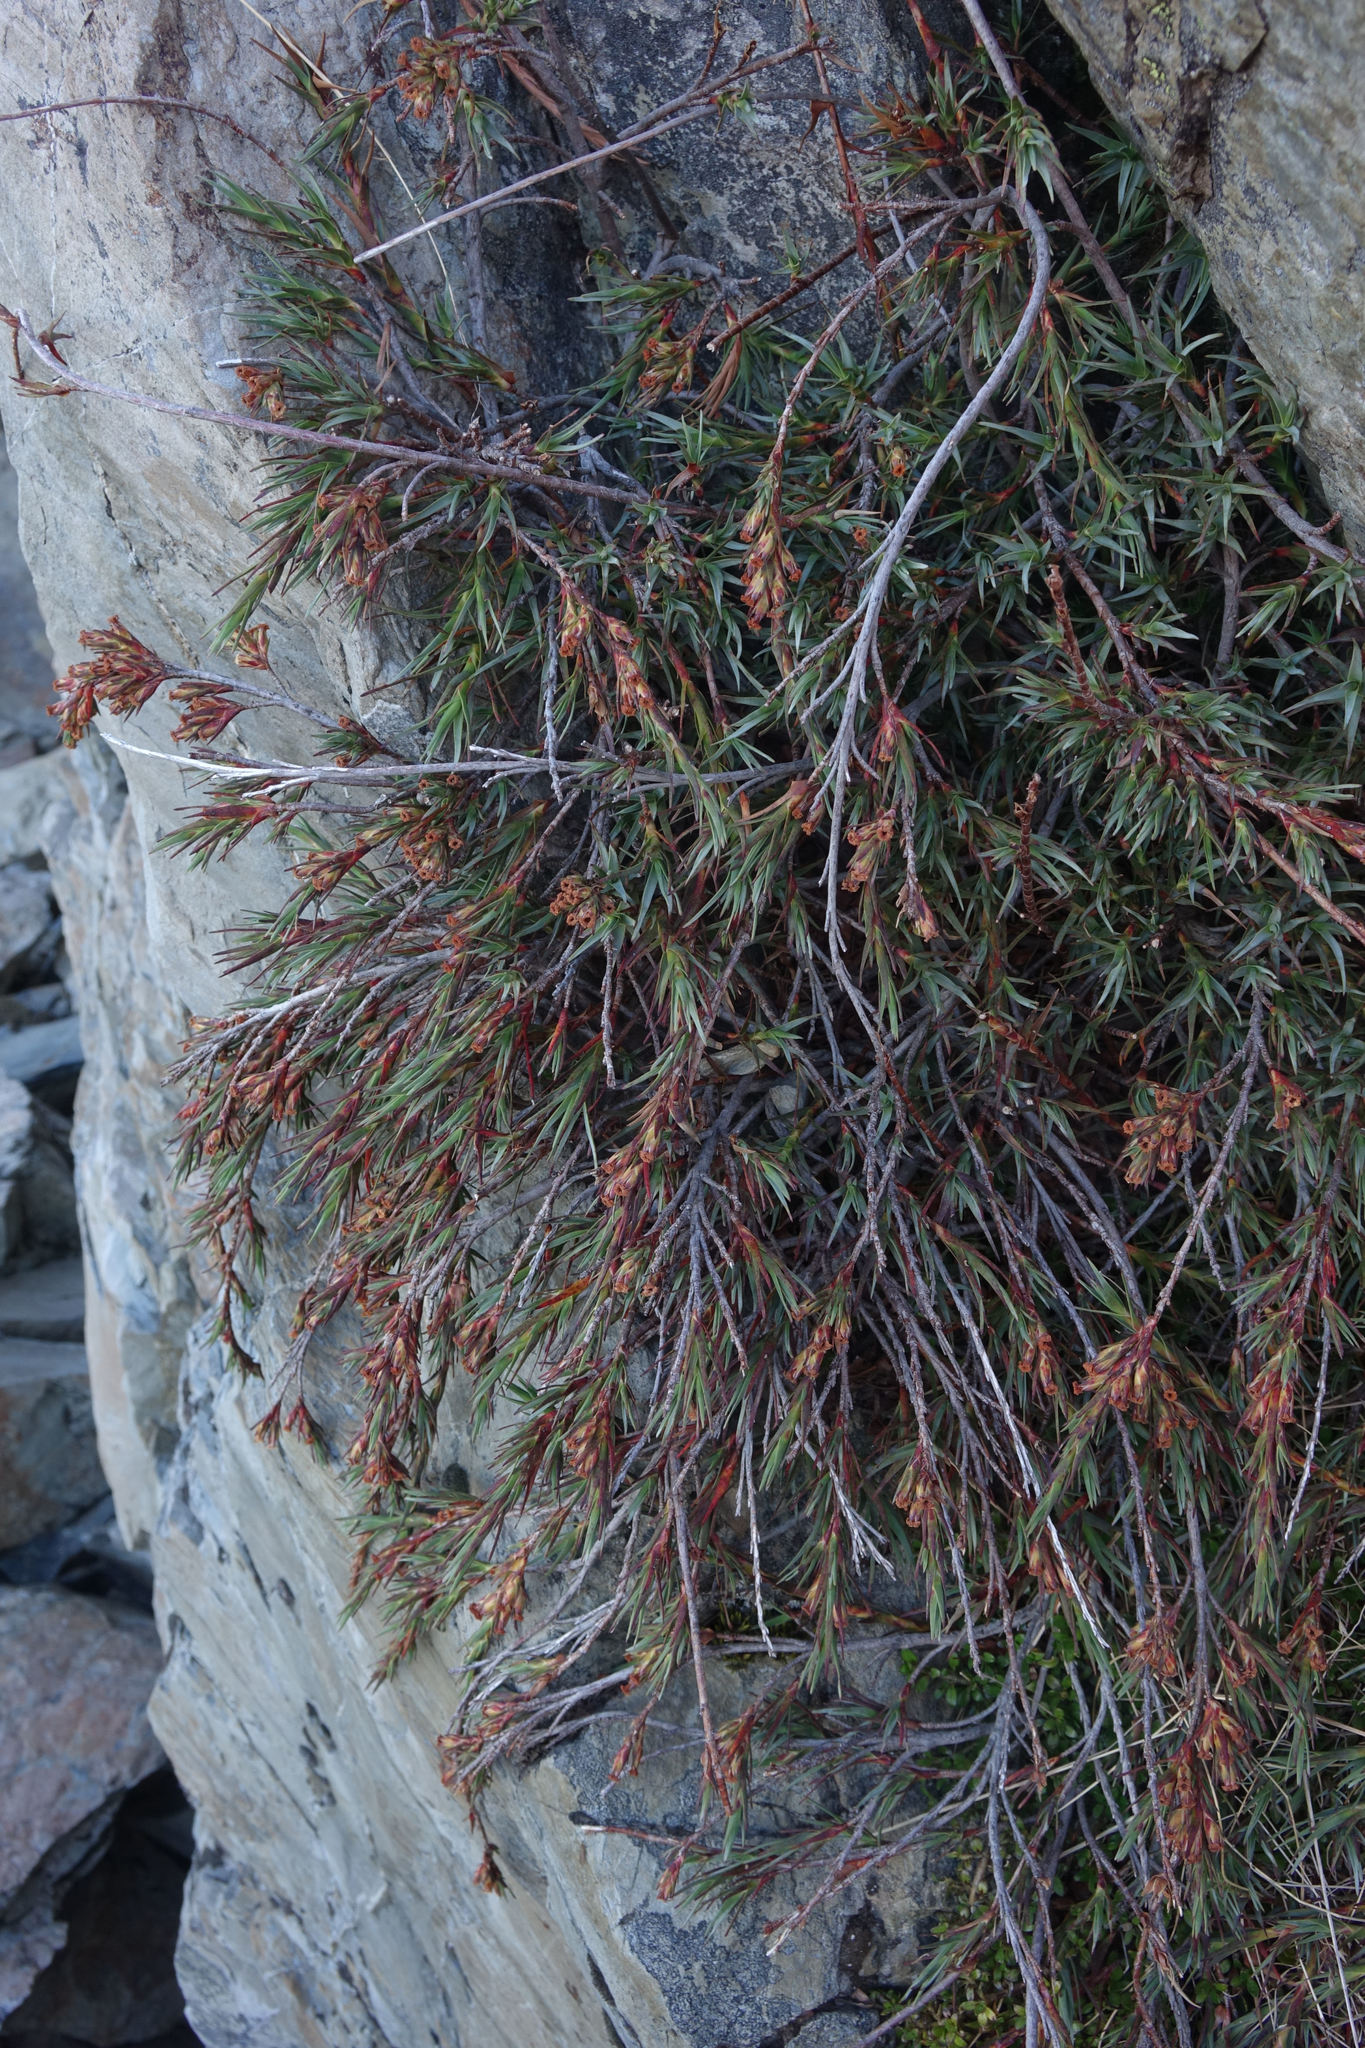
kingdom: Plantae
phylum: Tracheophyta
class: Magnoliopsida
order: Ericales
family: Ericaceae
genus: Dracophyllum
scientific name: Dracophyllum kirkii
